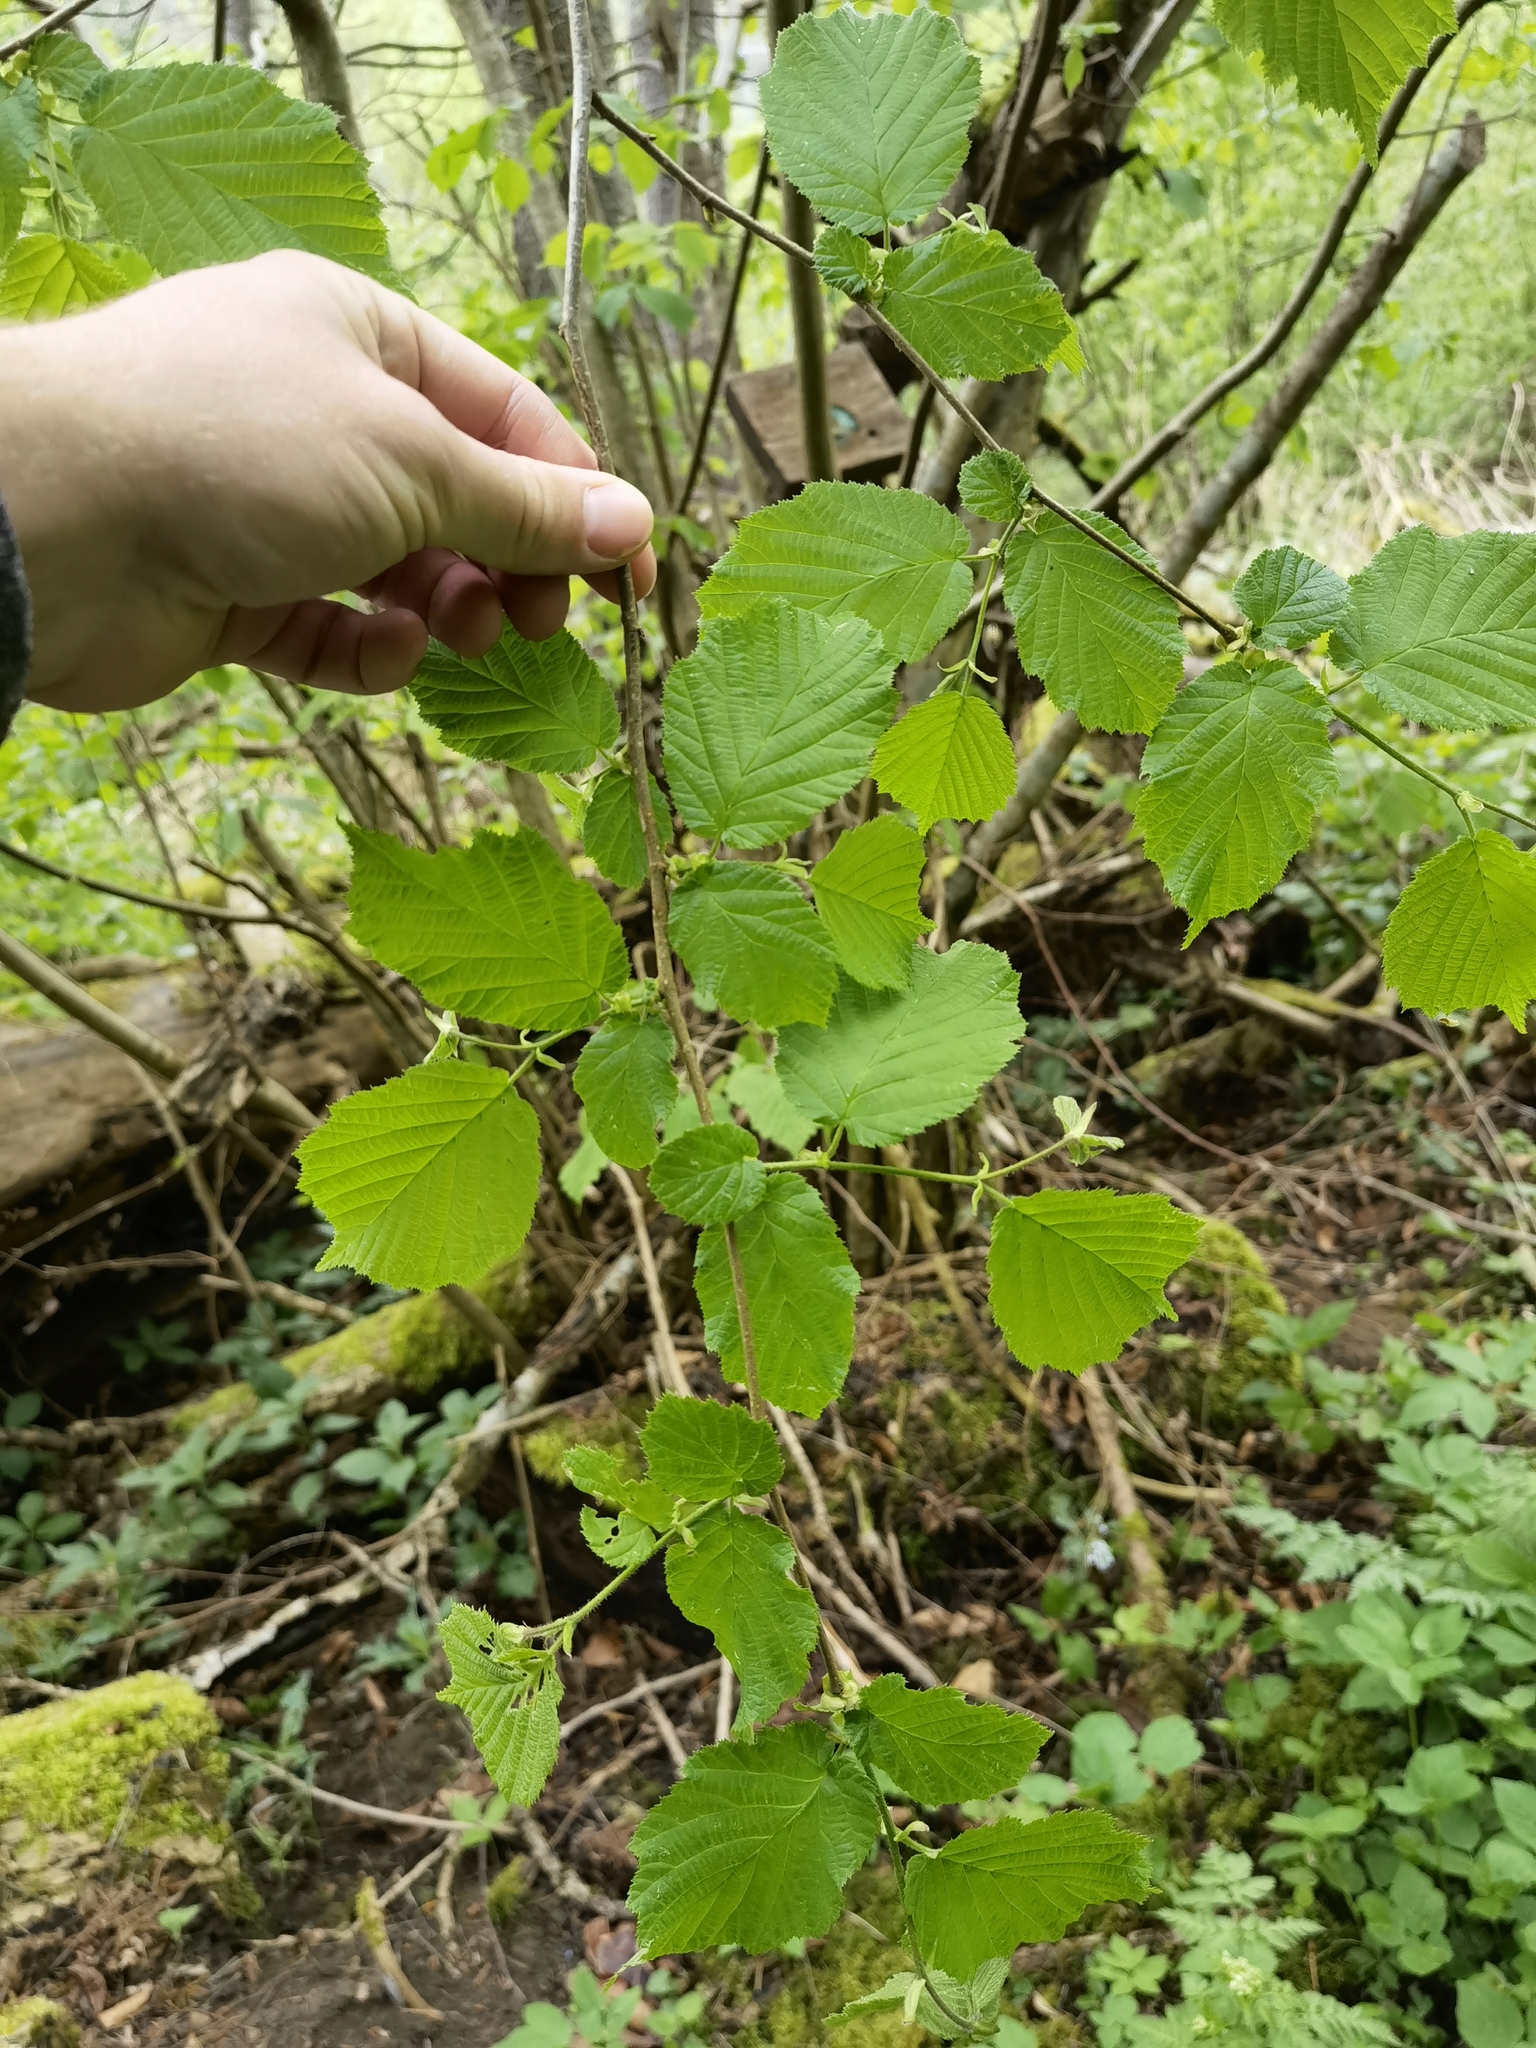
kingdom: Plantae
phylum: Tracheophyta
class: Magnoliopsida
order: Fagales
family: Betulaceae
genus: Corylus
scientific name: Corylus avellana
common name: European hazel
